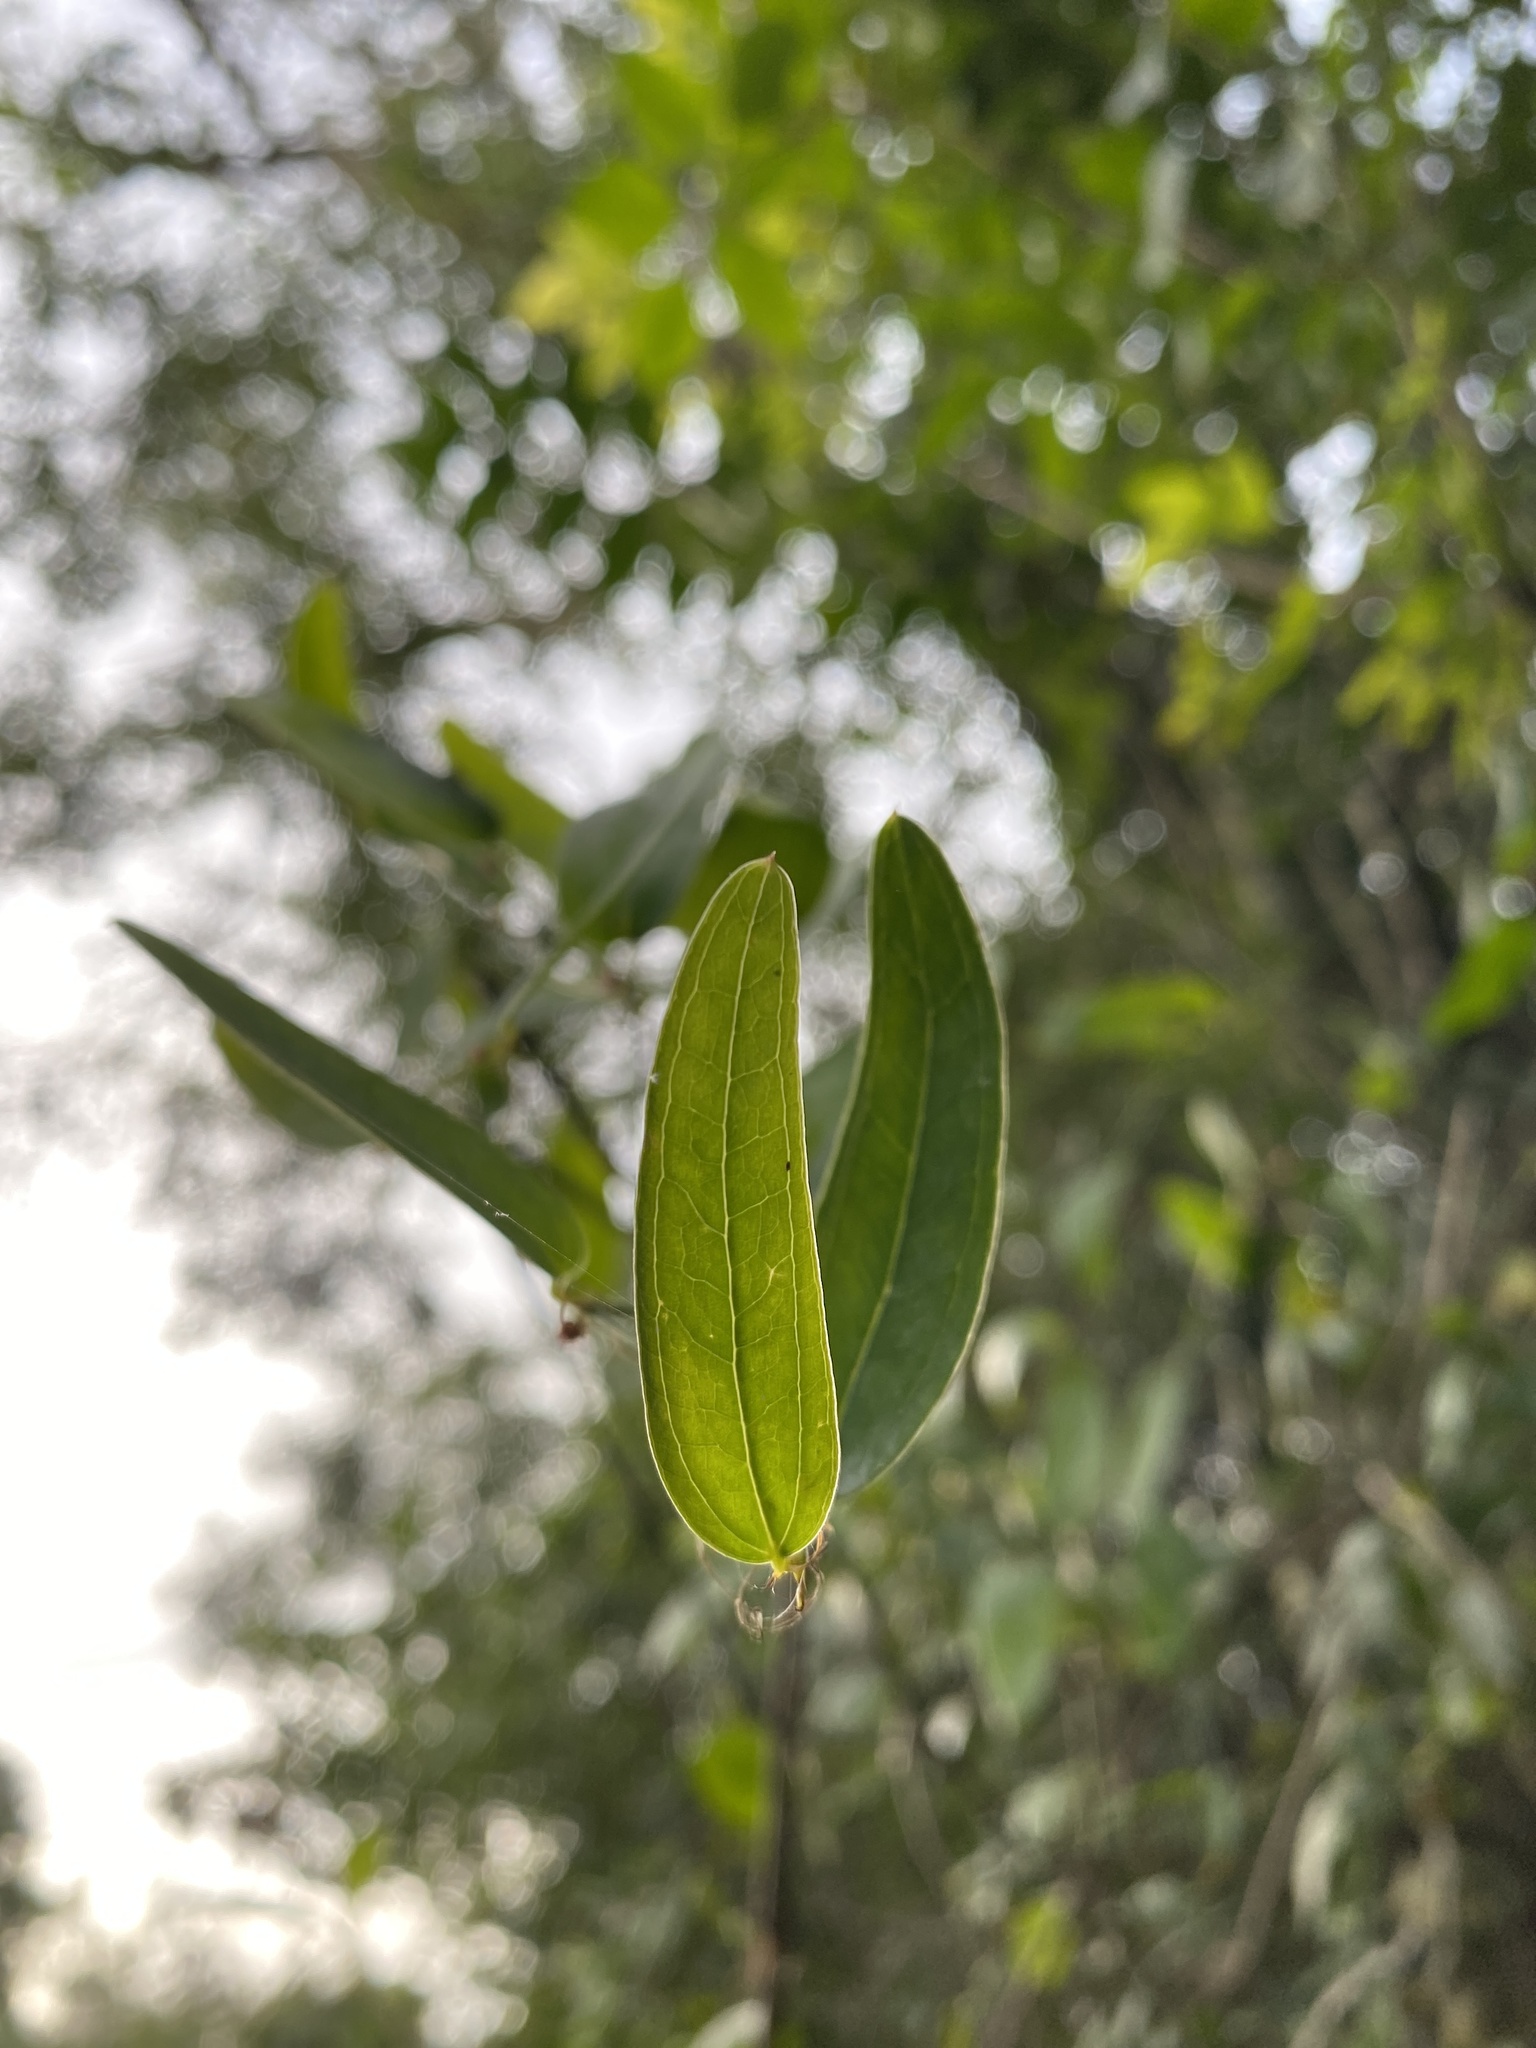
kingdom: Plantae
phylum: Tracheophyta
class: Liliopsida
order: Liliales
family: Smilacaceae
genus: Smilax
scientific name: Smilax campestris
